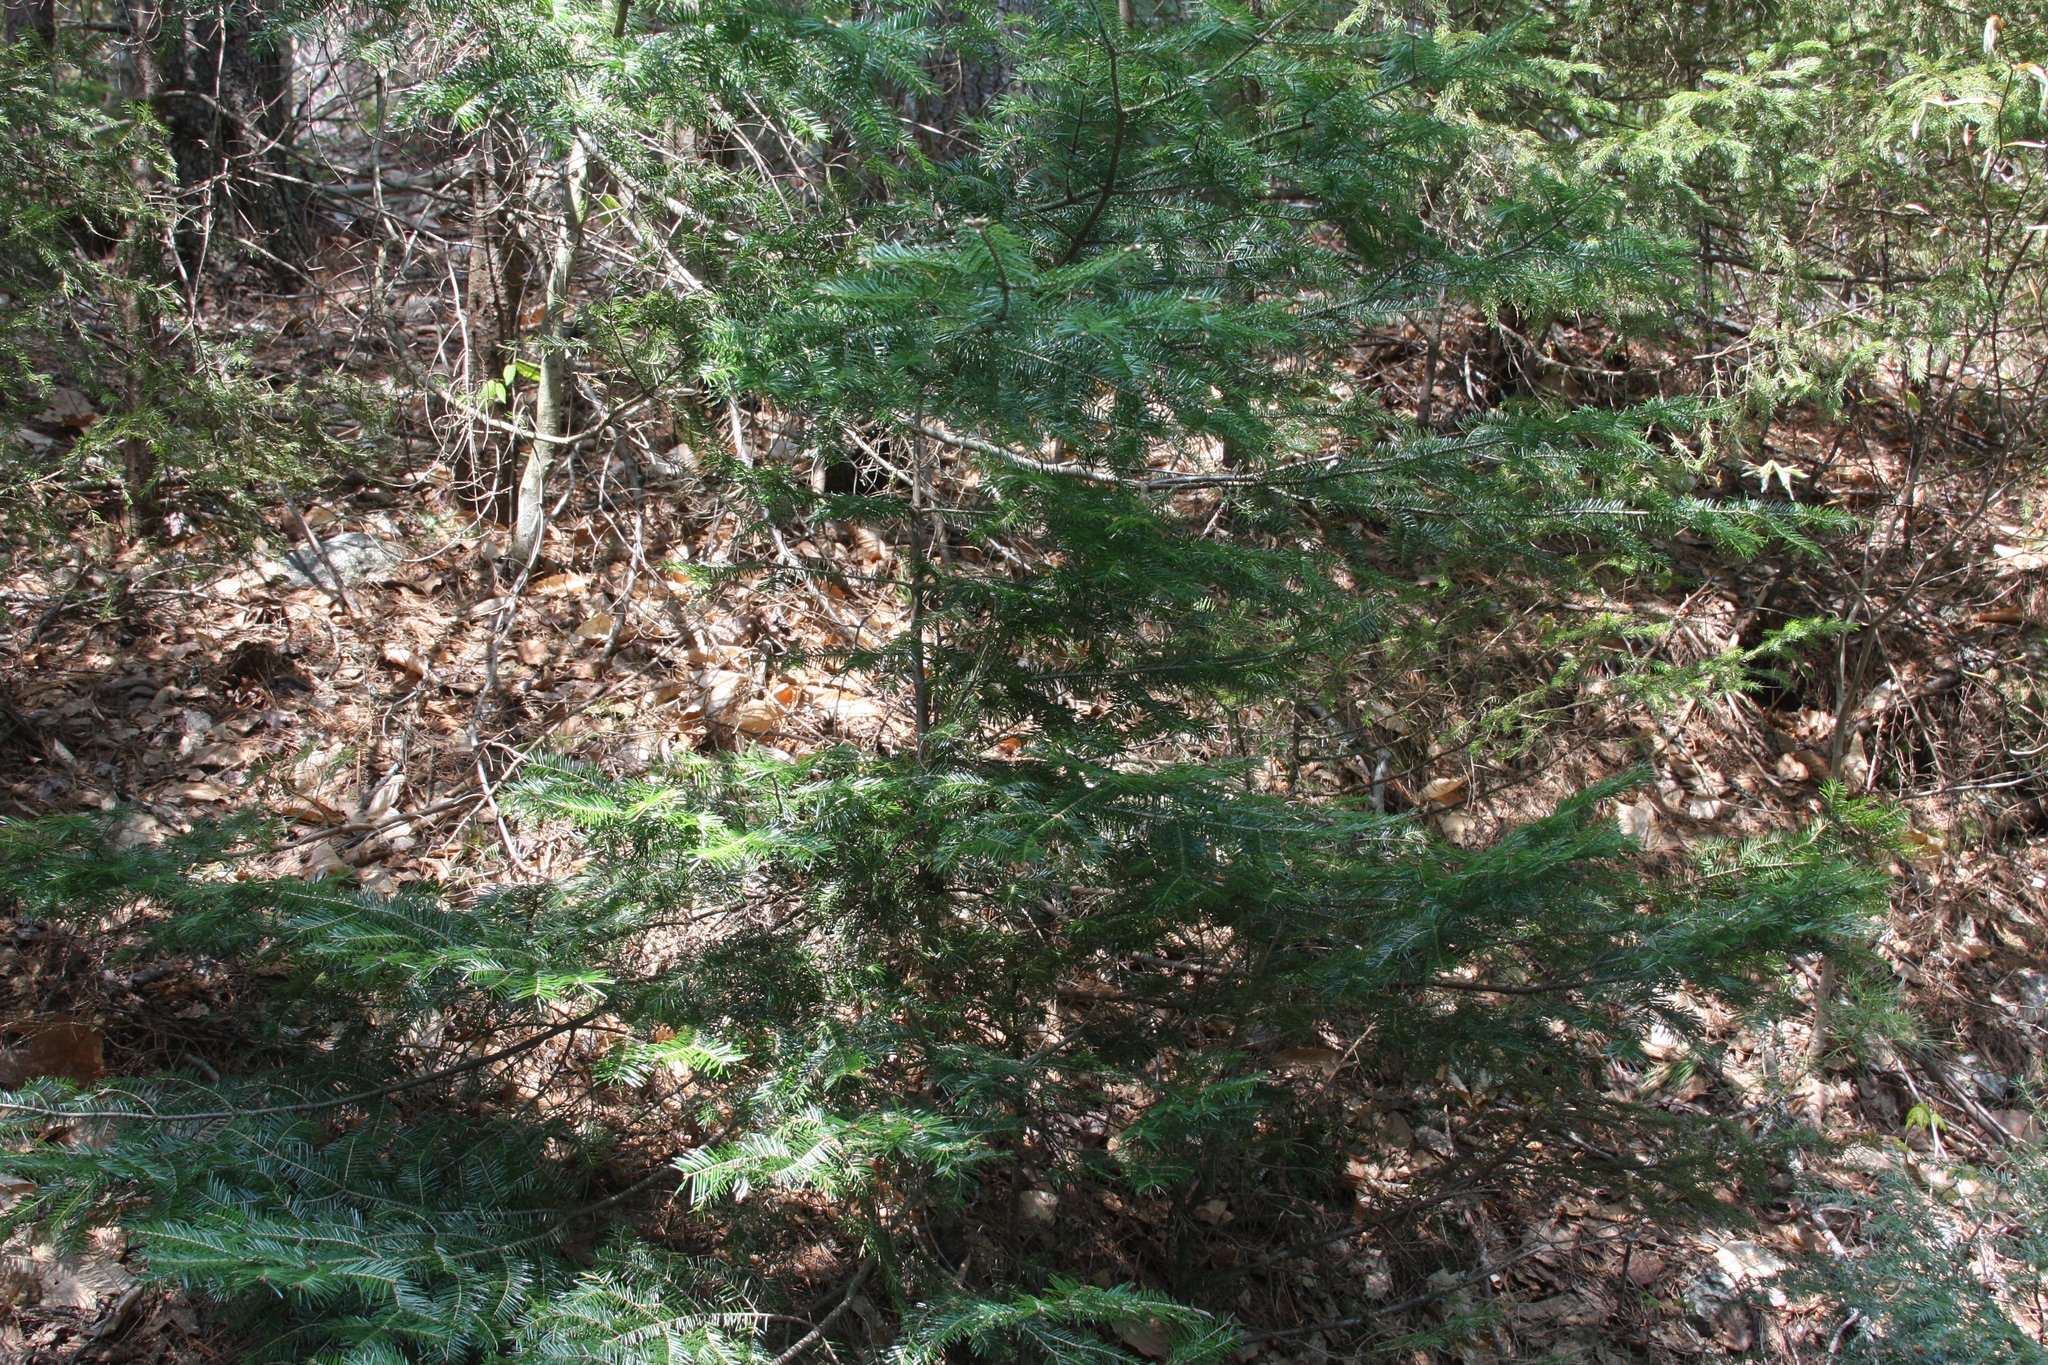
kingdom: Plantae
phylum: Tracheophyta
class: Pinopsida
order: Pinales
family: Pinaceae
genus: Abies
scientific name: Abies balsamea
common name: Balsam fir
